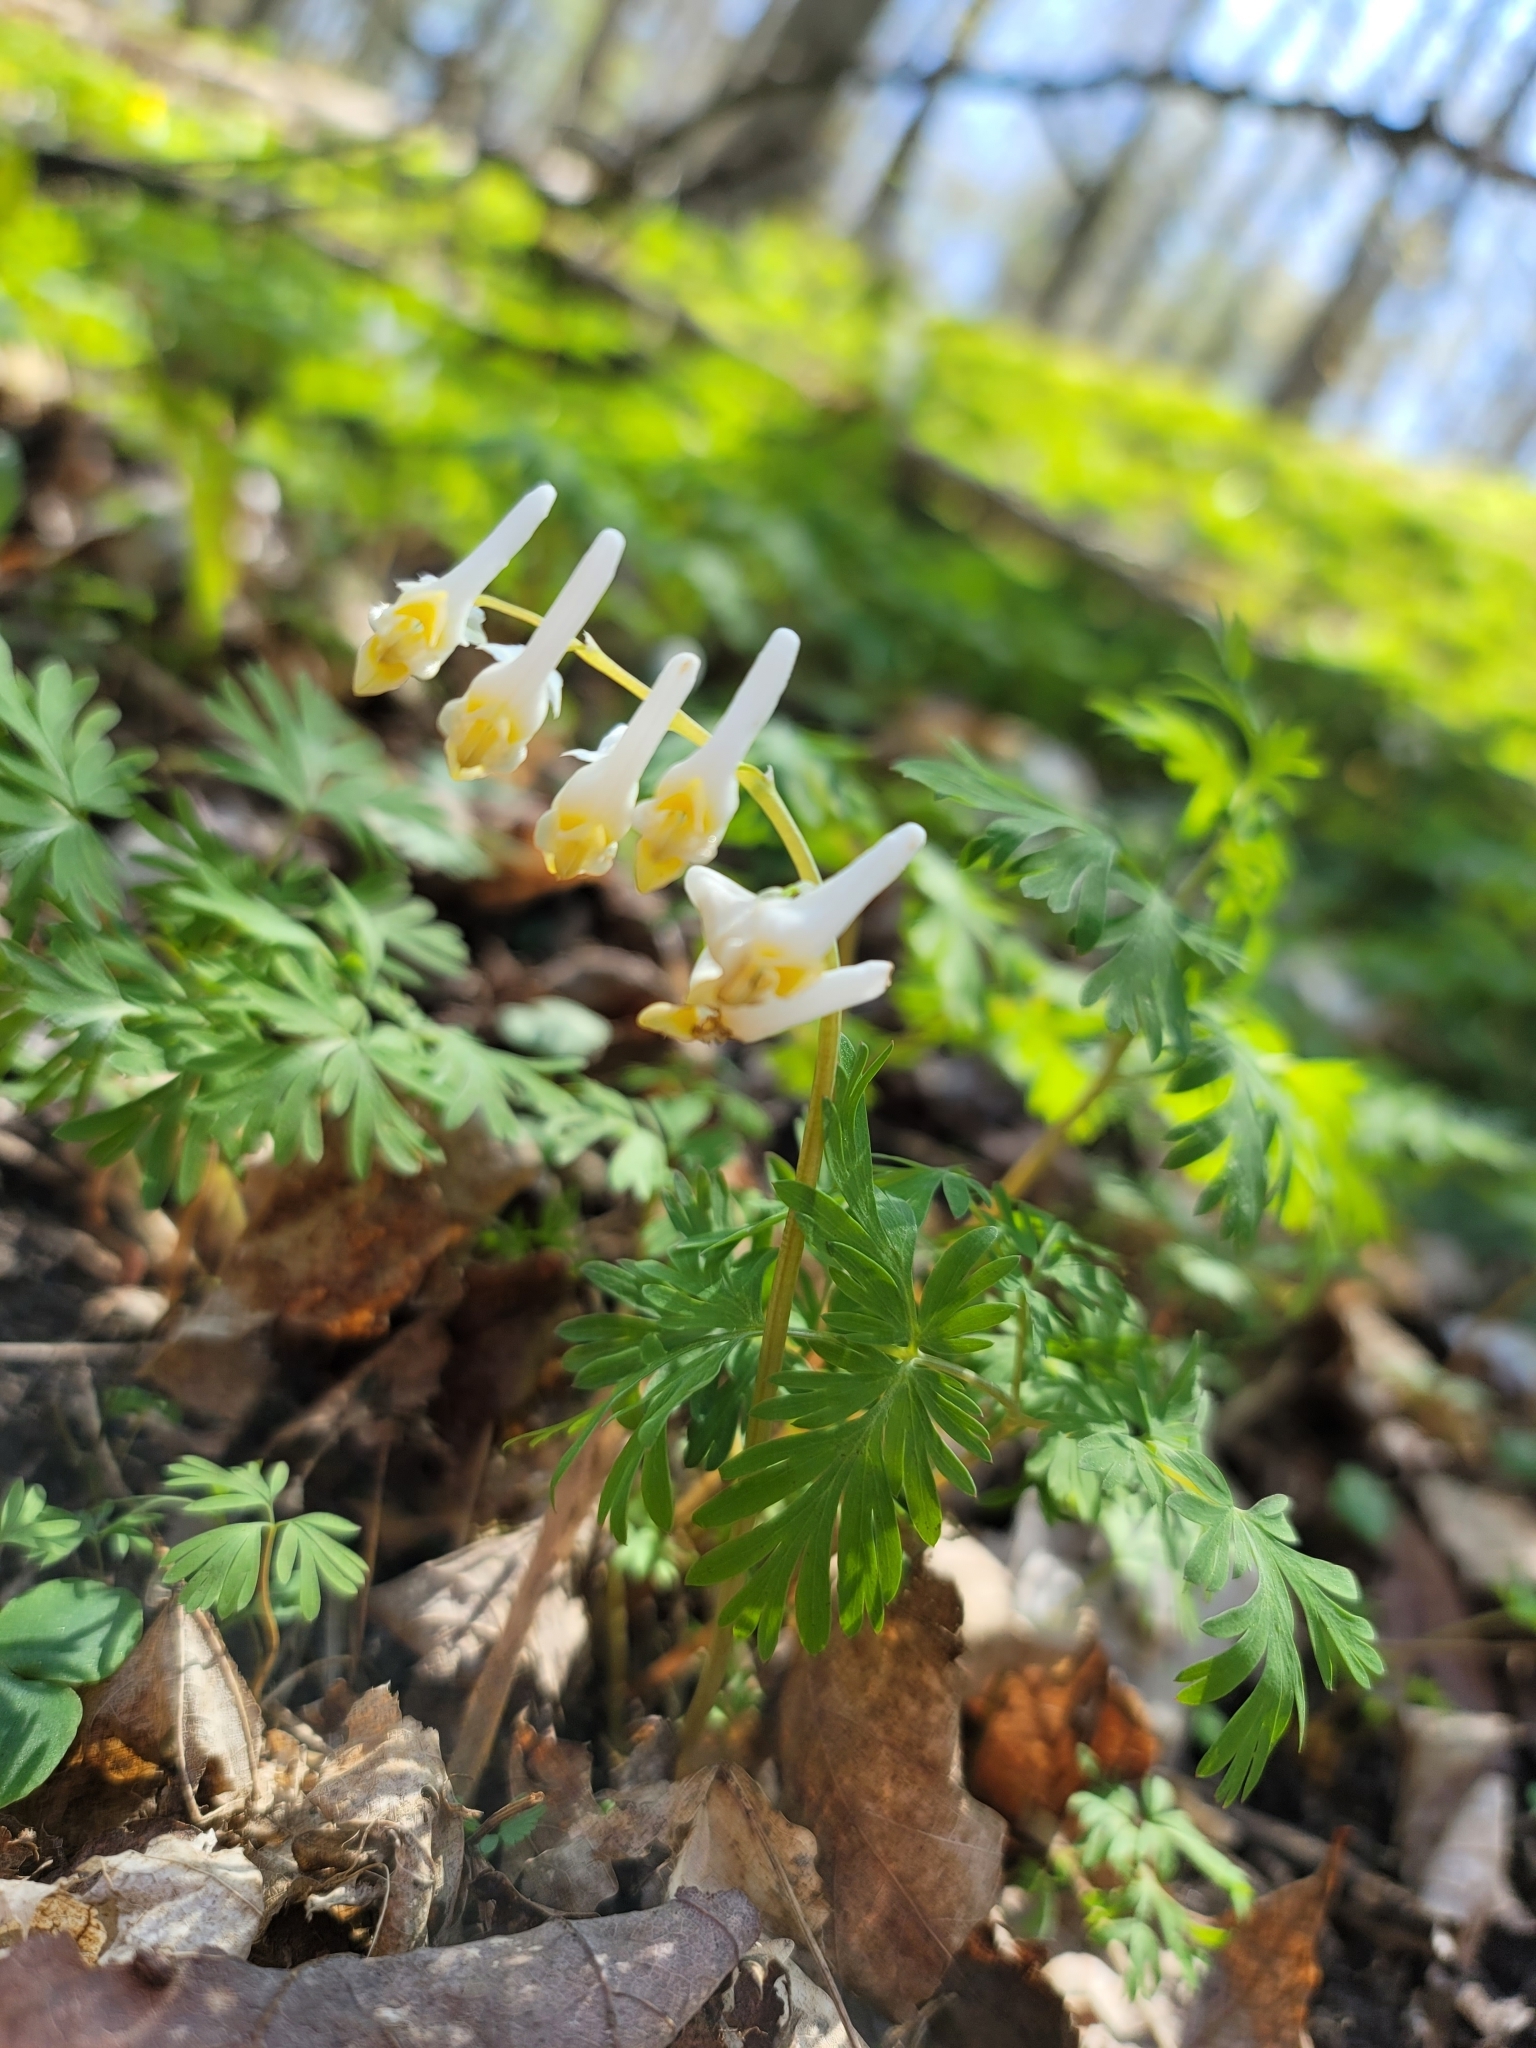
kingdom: Plantae
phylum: Tracheophyta
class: Magnoliopsida
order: Ranunculales
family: Papaveraceae
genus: Dicentra
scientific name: Dicentra cucullaria
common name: Dutchman's breeches
